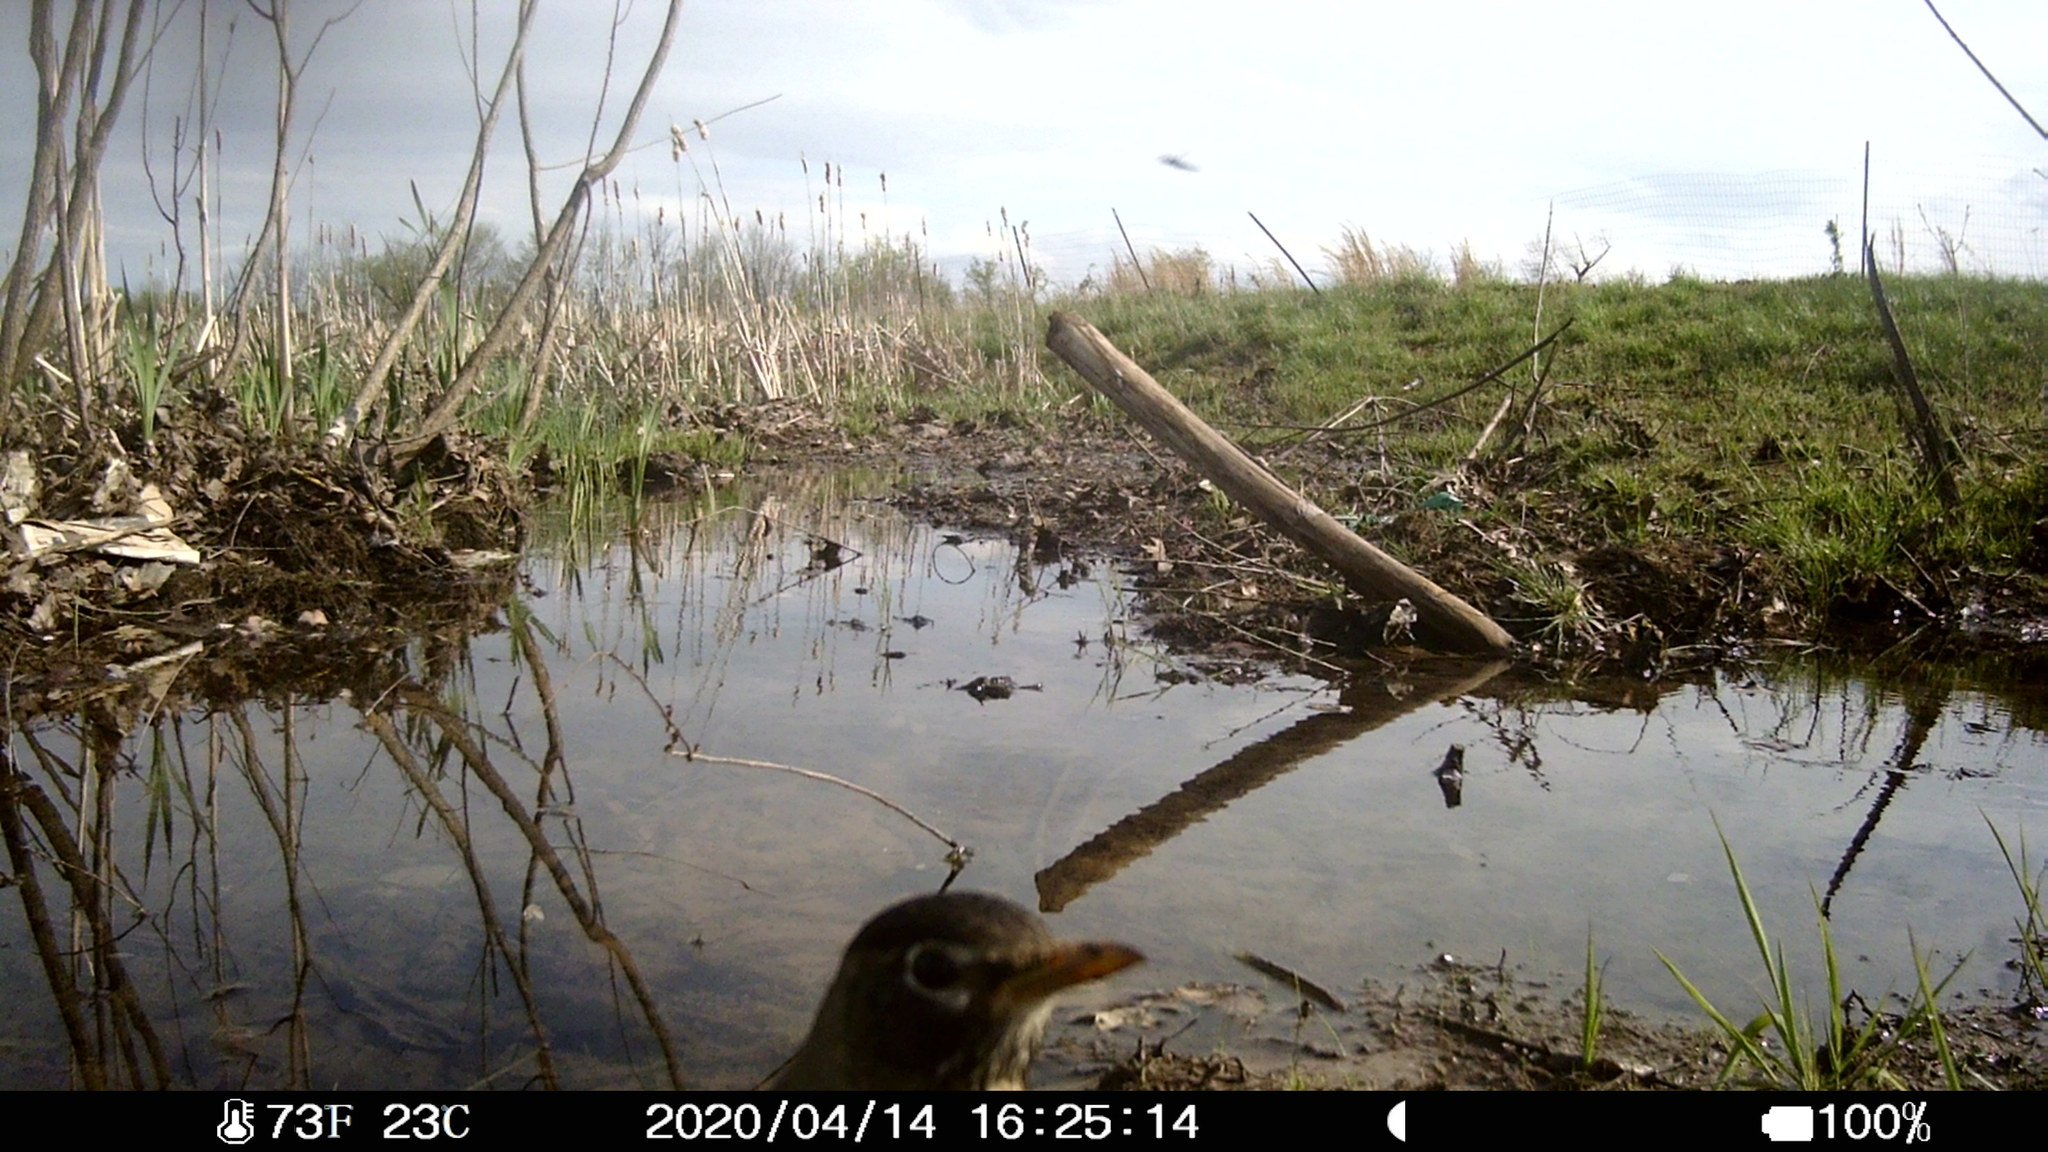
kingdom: Animalia
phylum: Chordata
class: Aves
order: Passeriformes
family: Turdidae
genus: Turdus
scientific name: Turdus migratorius
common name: American robin
